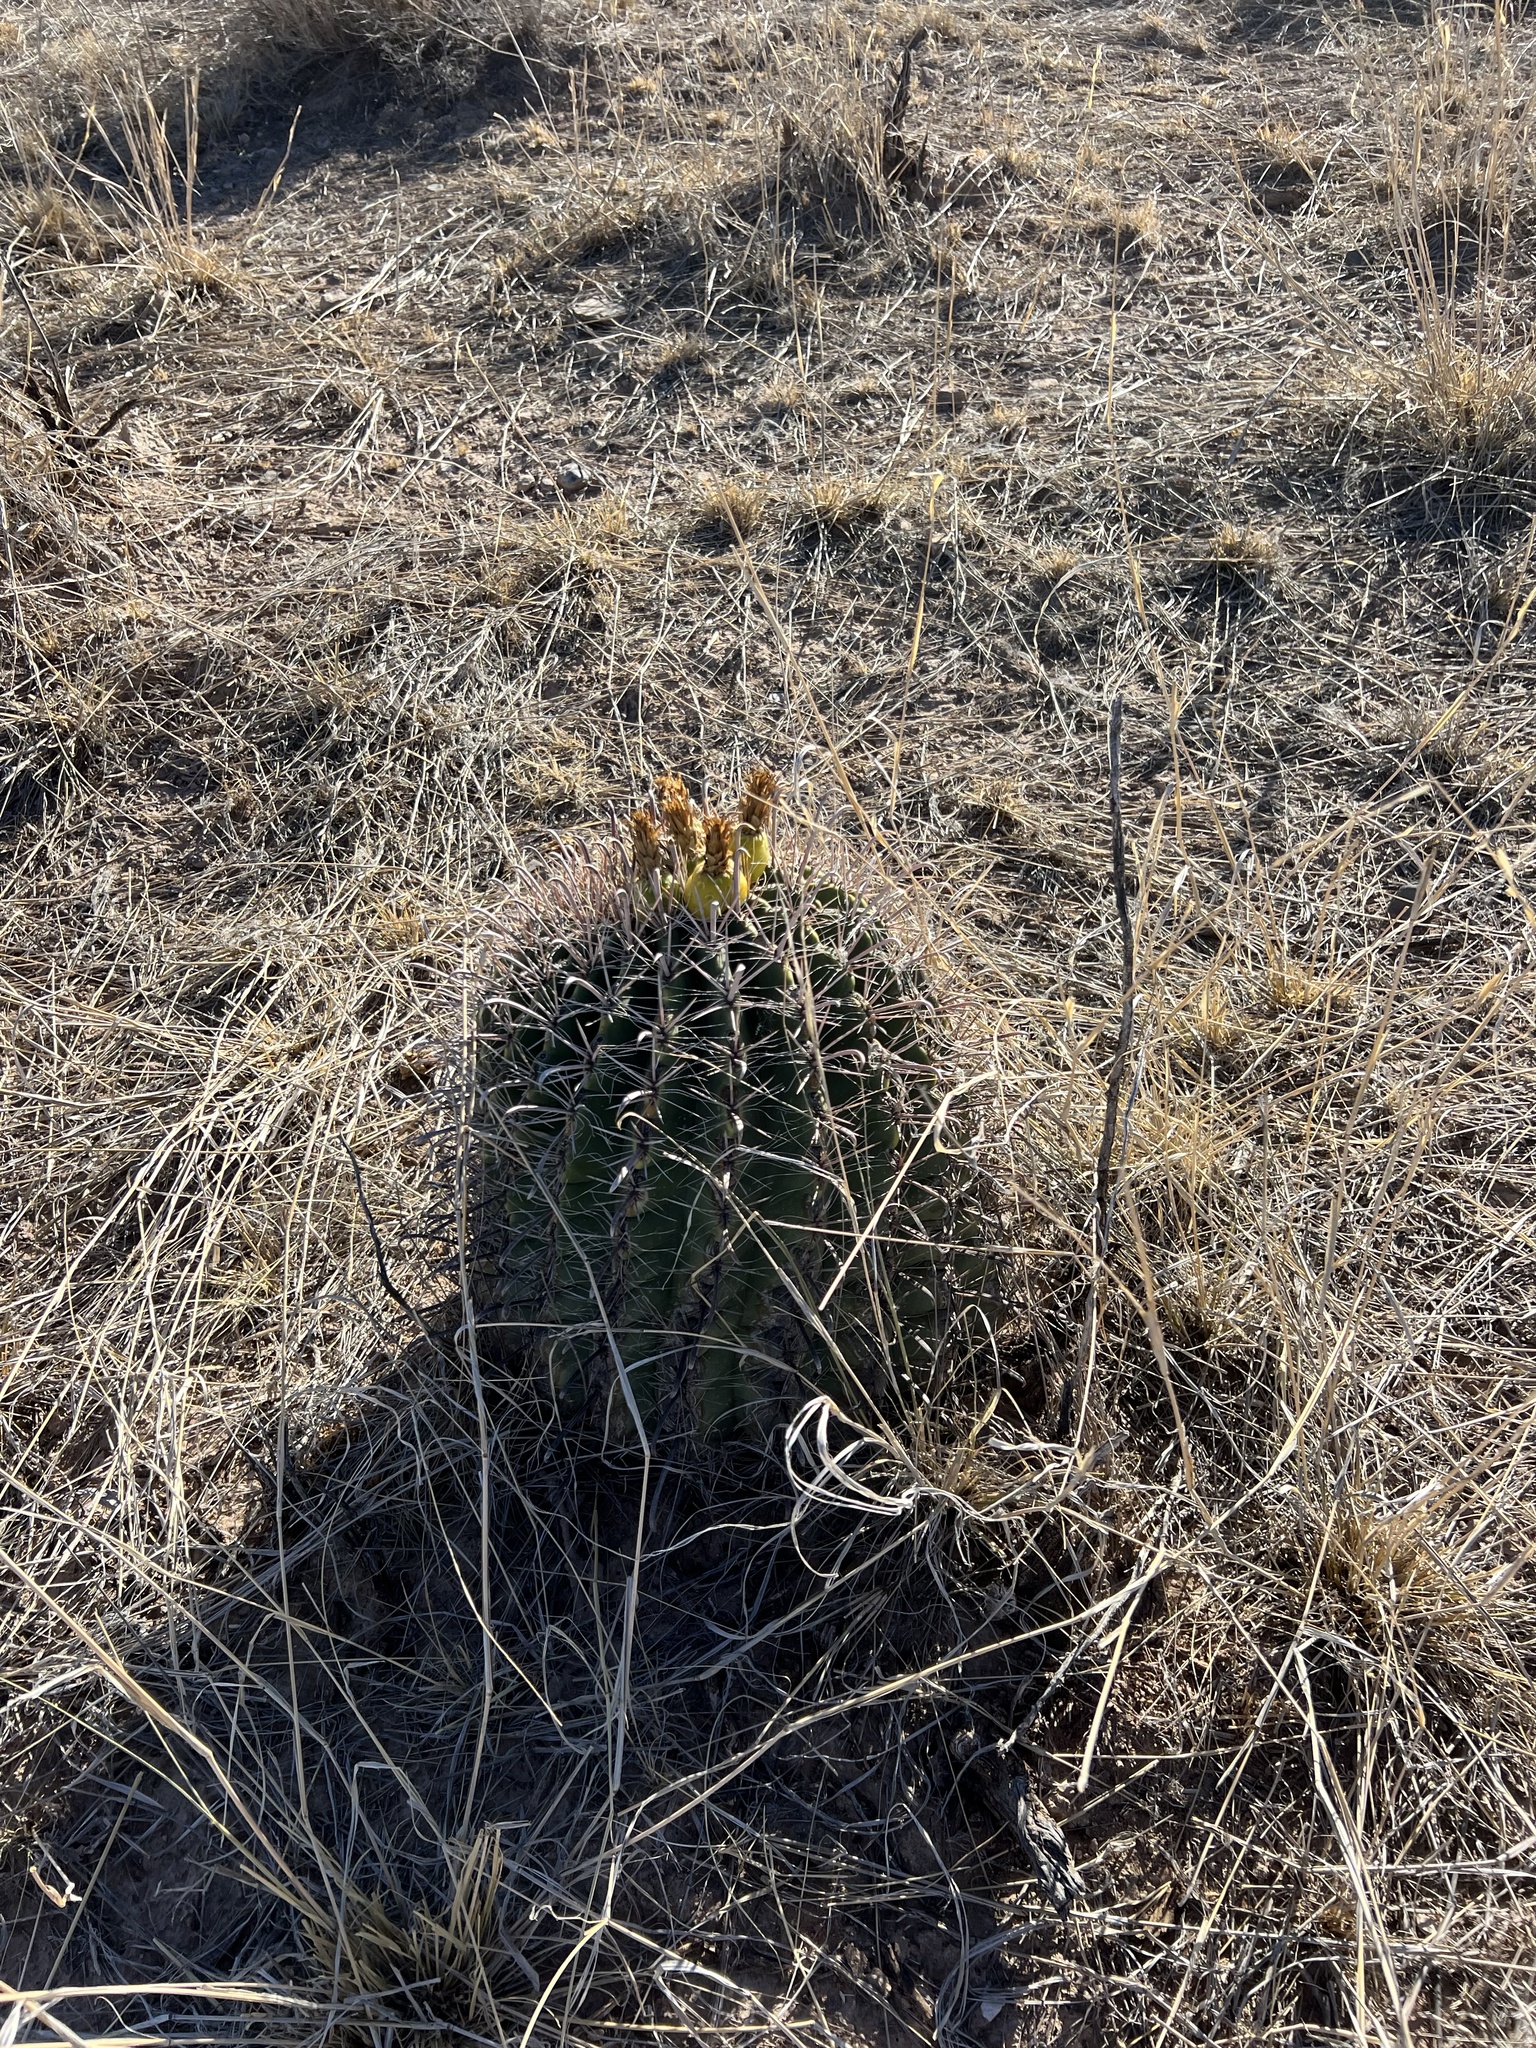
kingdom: Plantae
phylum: Tracheophyta
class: Magnoliopsida
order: Caryophyllales
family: Cactaceae
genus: Ferocactus
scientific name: Ferocactus wislizeni
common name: Candy barrel cactus
